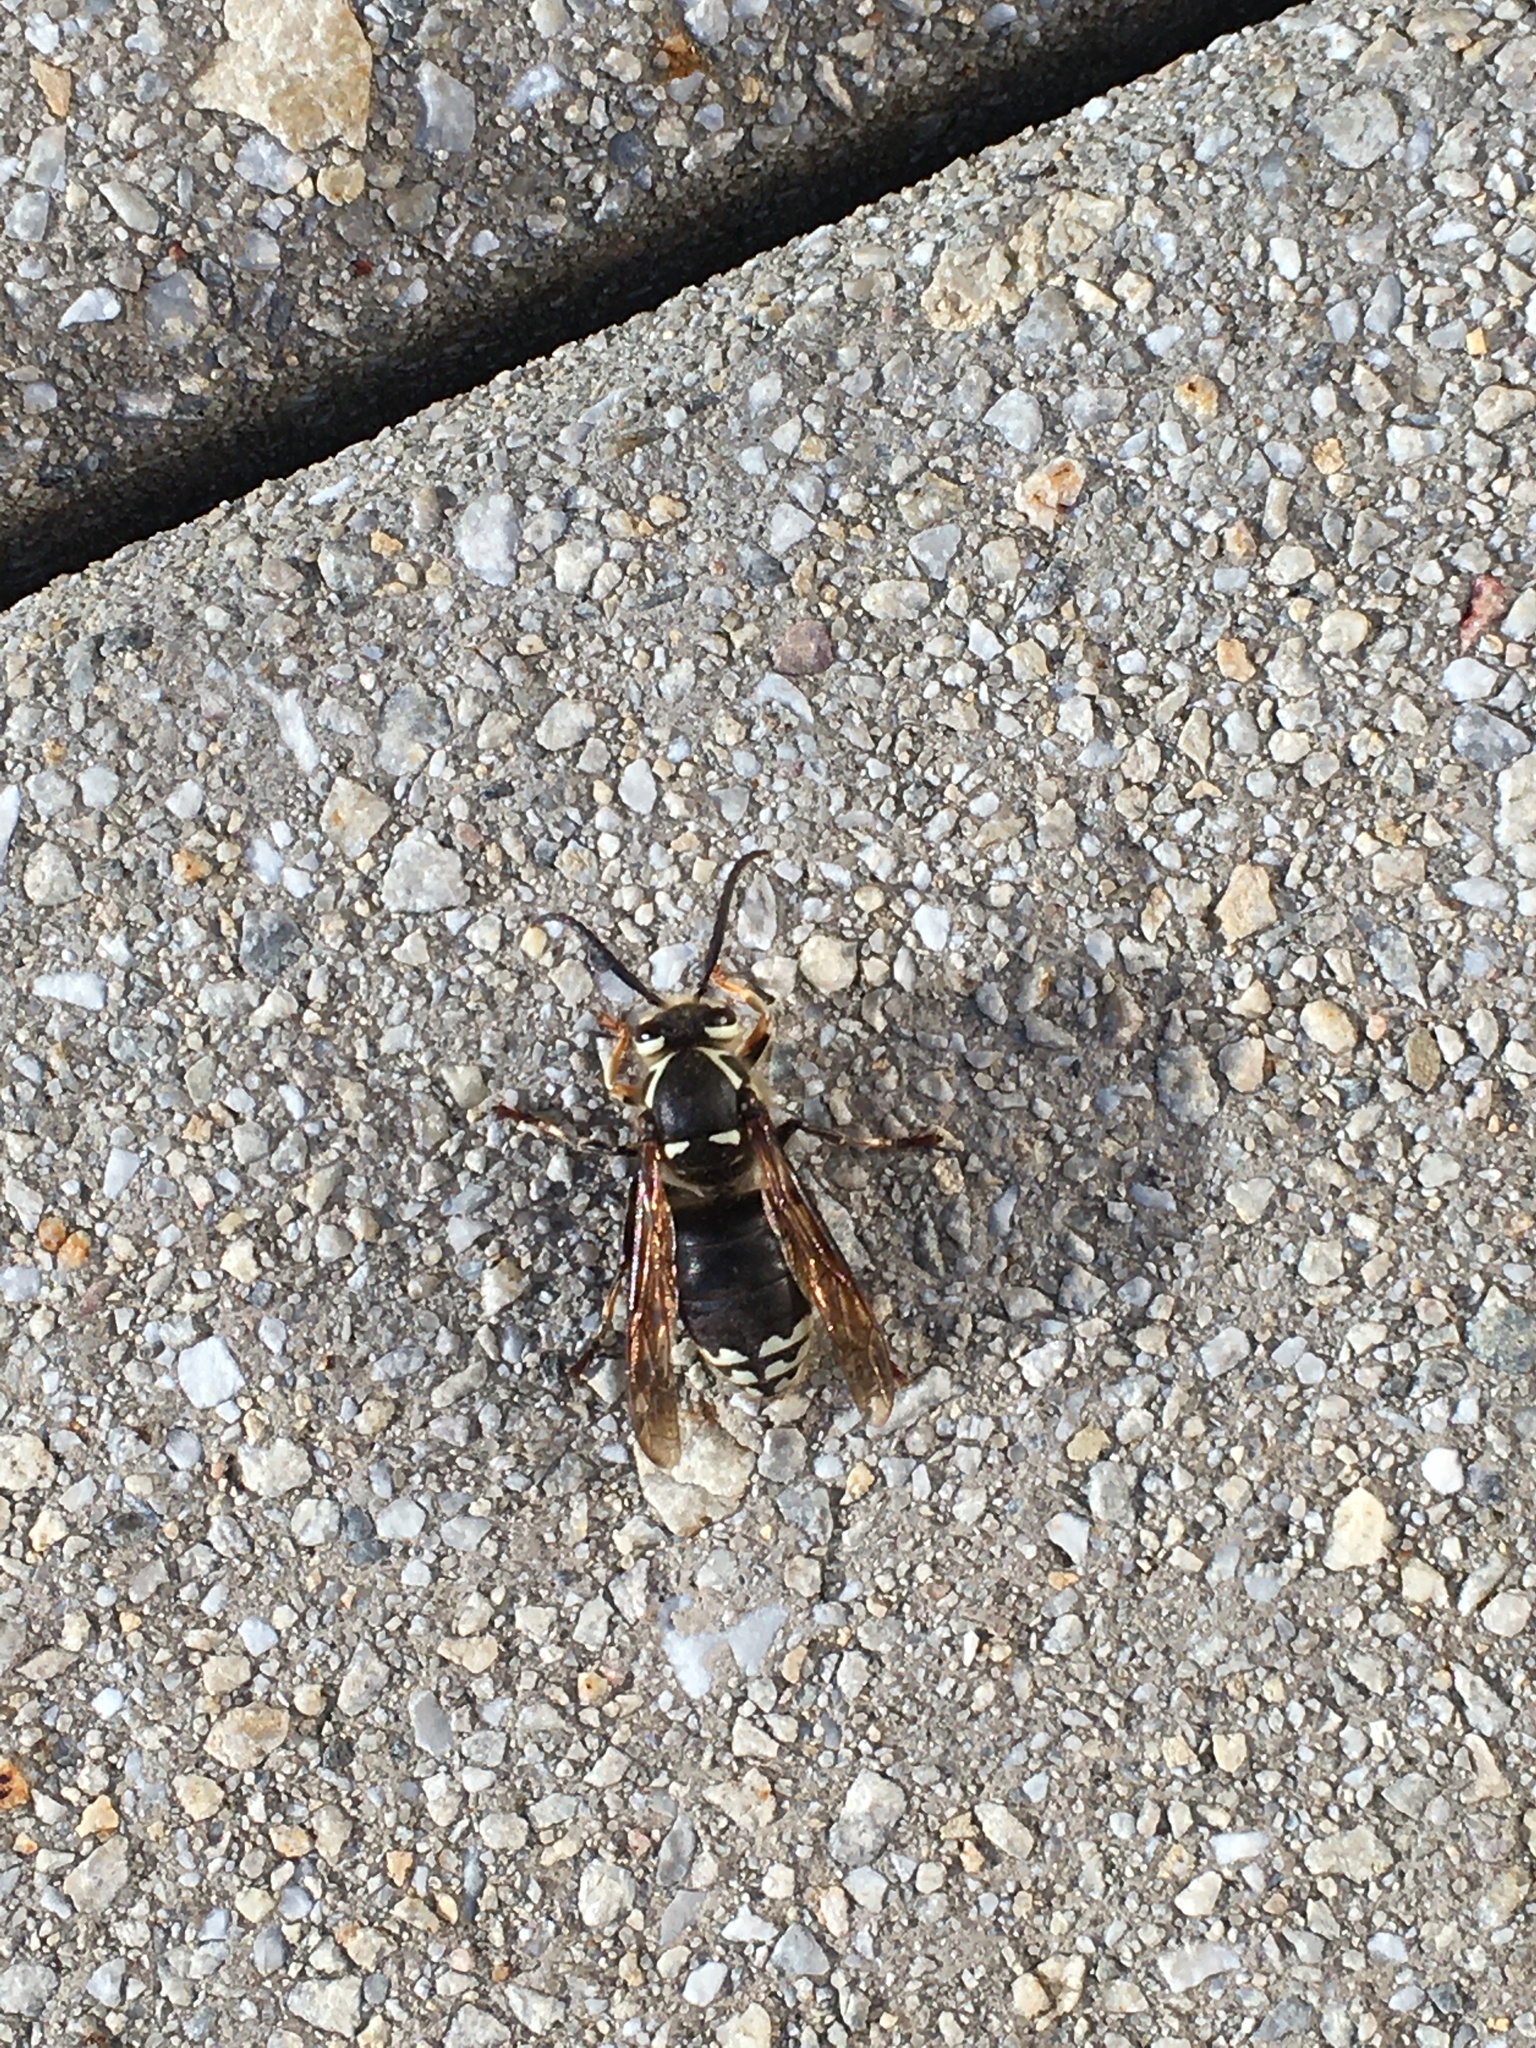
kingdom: Animalia
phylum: Arthropoda
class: Insecta
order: Hymenoptera
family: Vespidae
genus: Dolichovespula
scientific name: Dolichovespula maculata
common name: Bald-faced hornet
